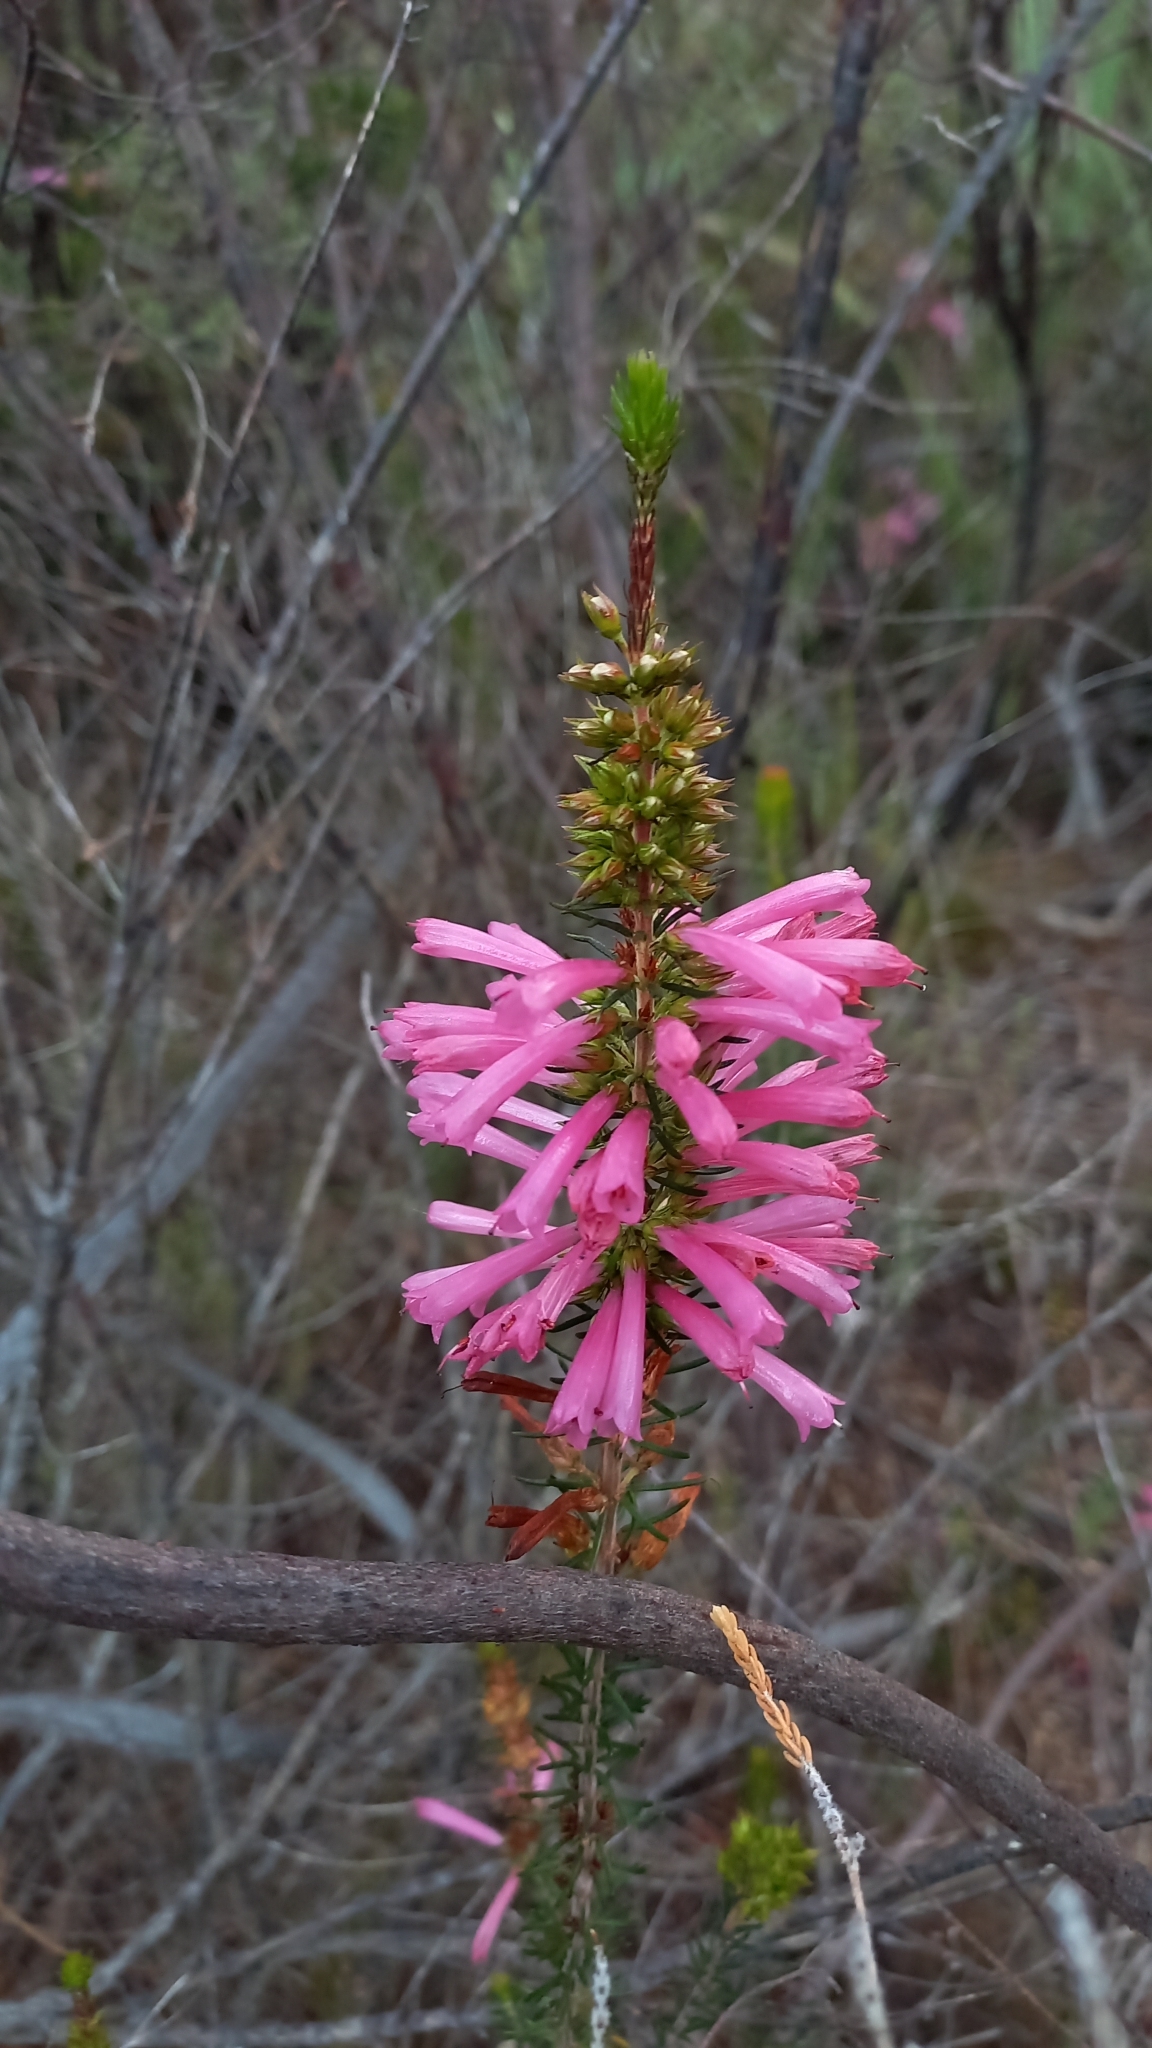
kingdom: Plantae
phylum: Tracheophyta
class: Magnoliopsida
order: Ericales
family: Ericaceae
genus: Erica
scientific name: Erica abietina
